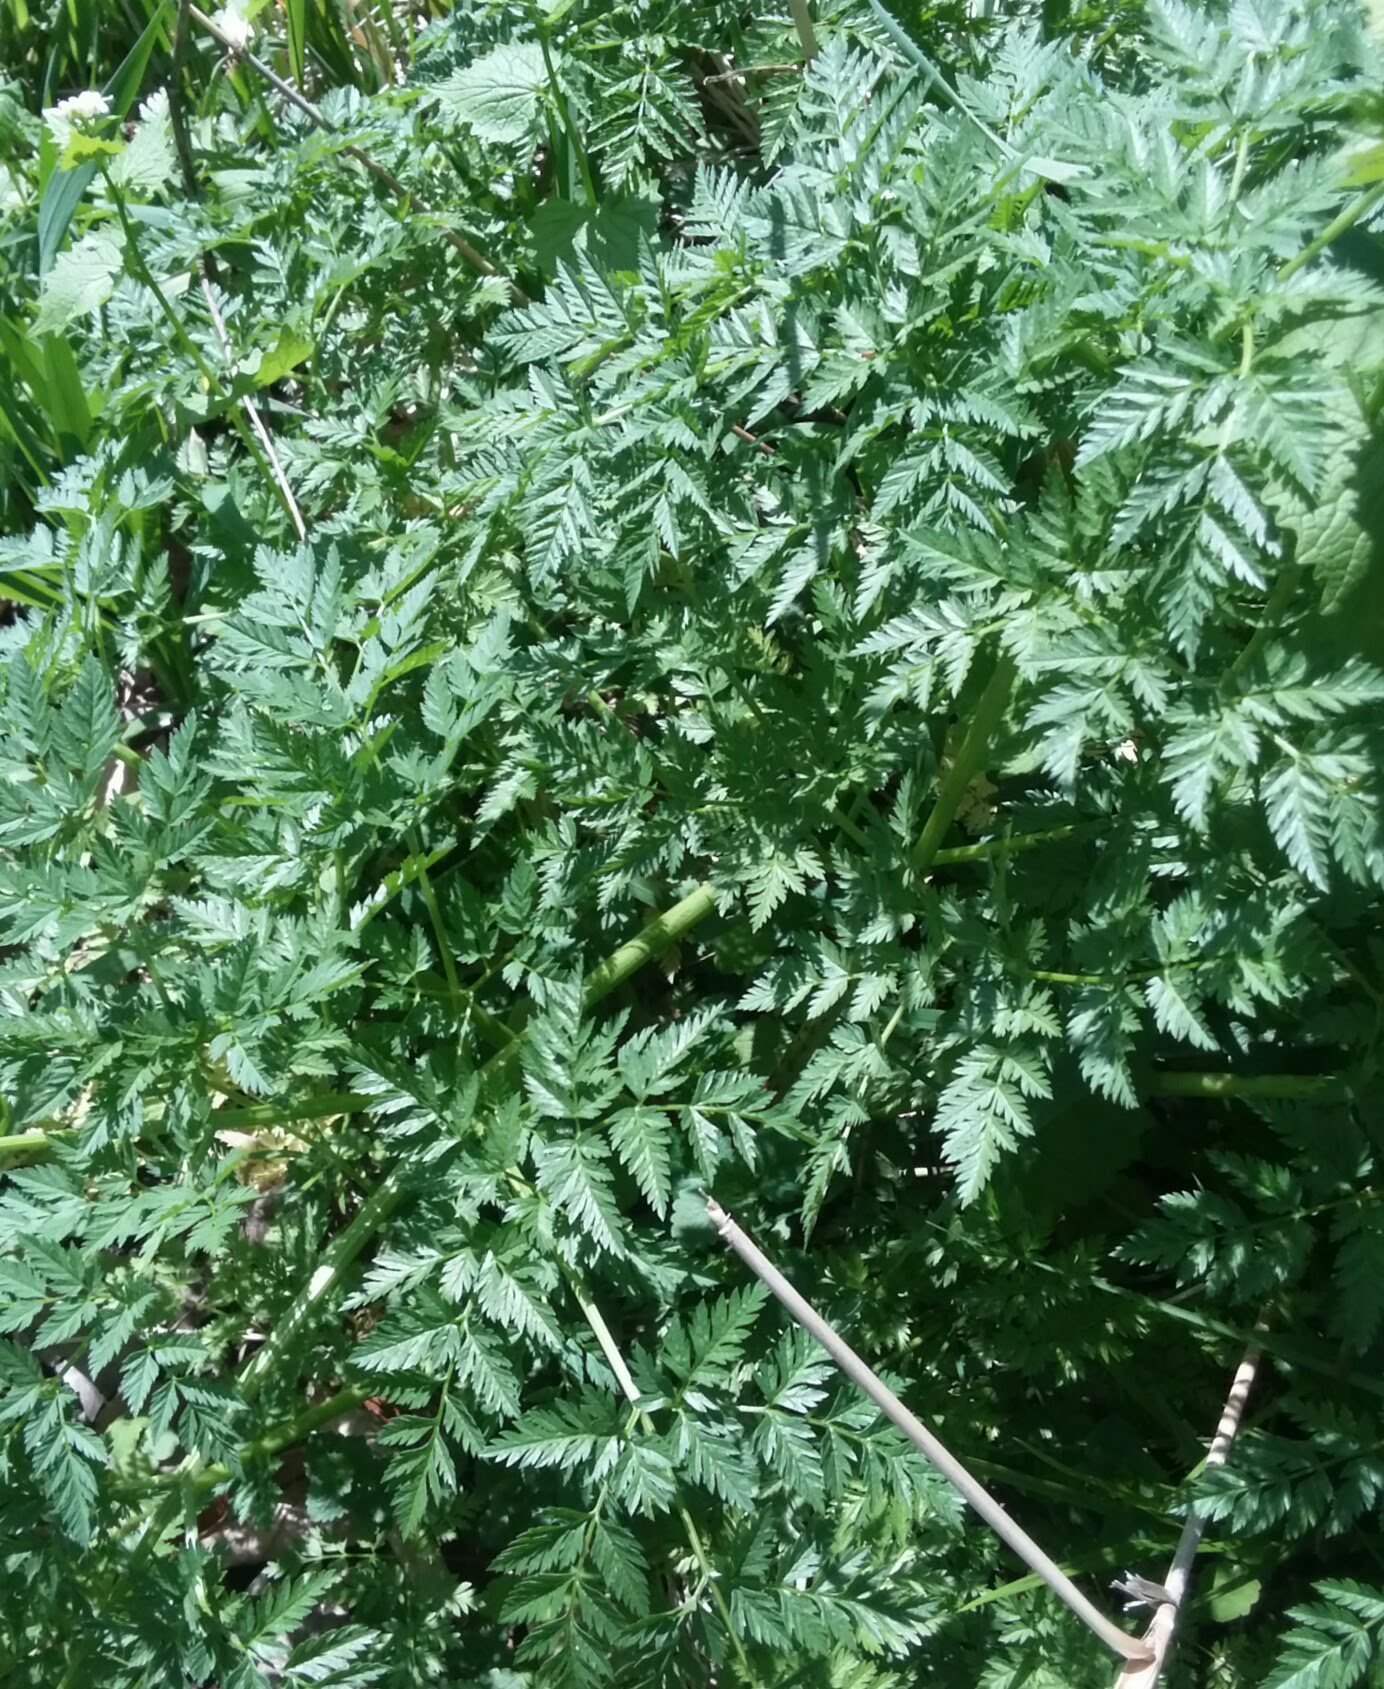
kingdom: Plantae
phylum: Tracheophyta
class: Magnoliopsida
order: Apiales
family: Apiaceae
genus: Conium
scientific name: Conium maculatum
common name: Hemlock
